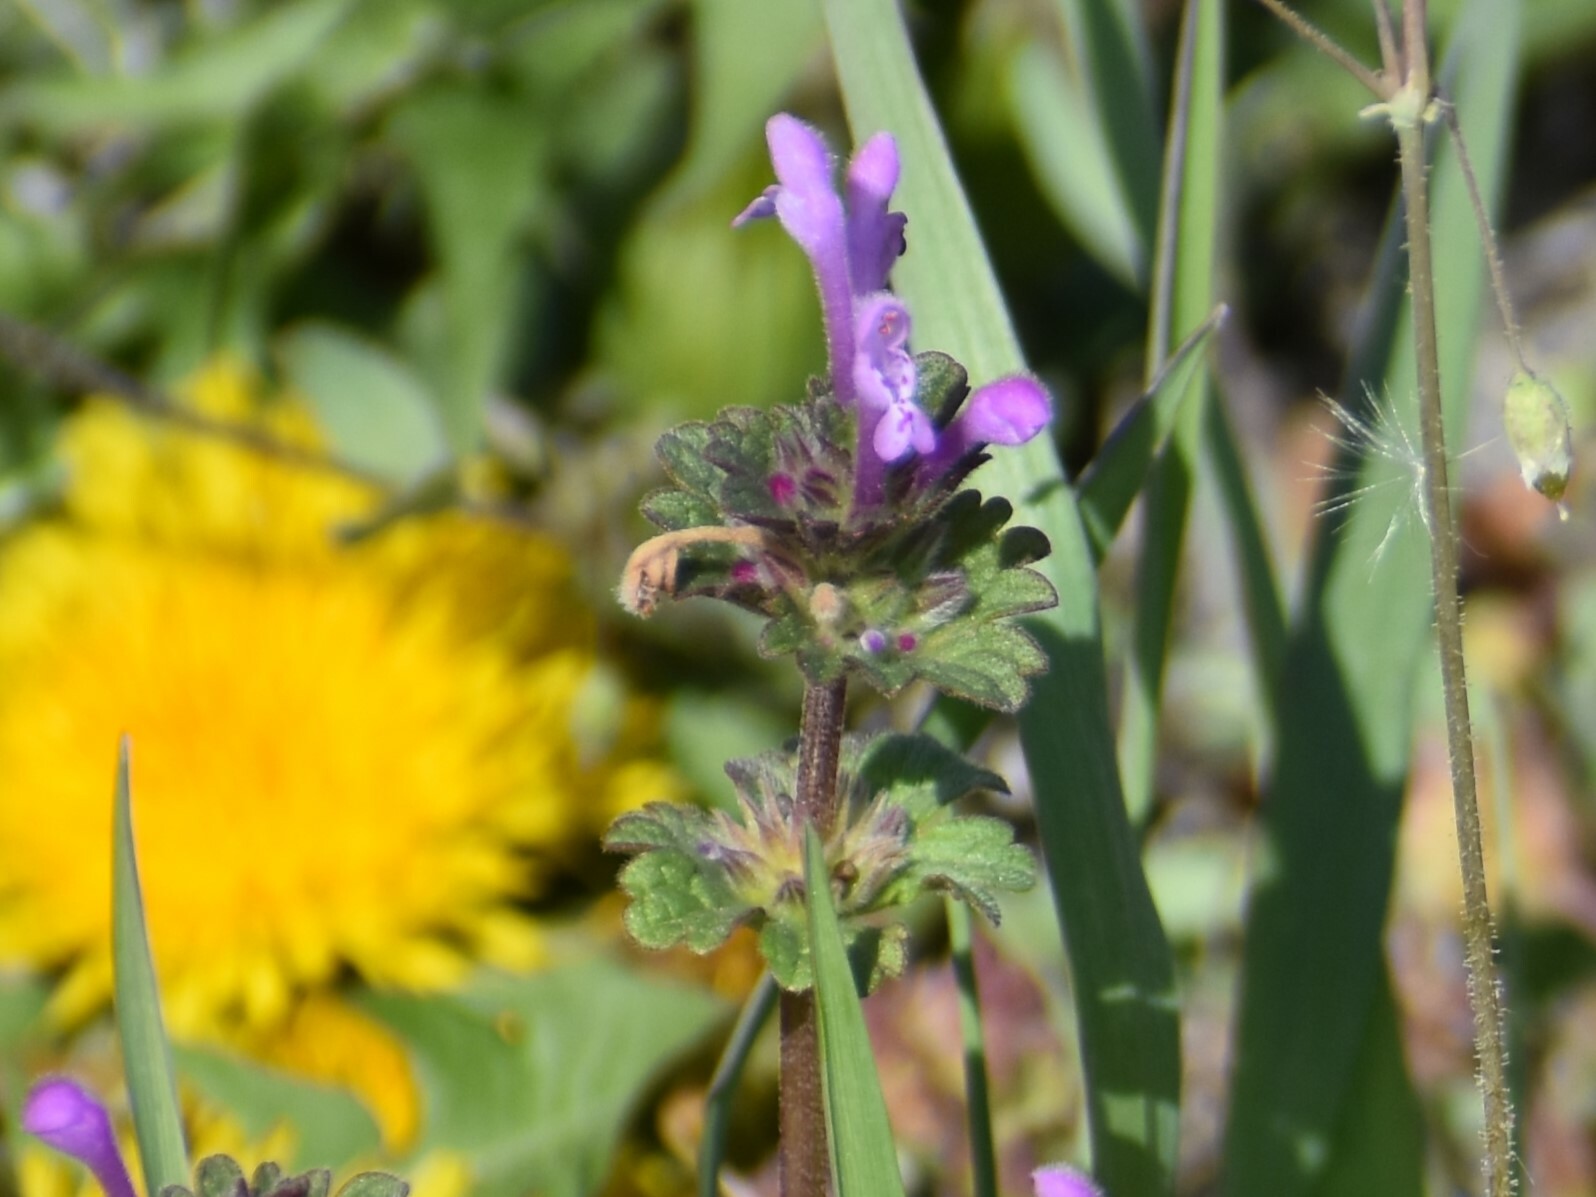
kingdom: Plantae
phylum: Tracheophyta
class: Magnoliopsida
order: Lamiales
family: Lamiaceae
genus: Lamium
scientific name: Lamium amplexicaule
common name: Henbit dead-nettle
